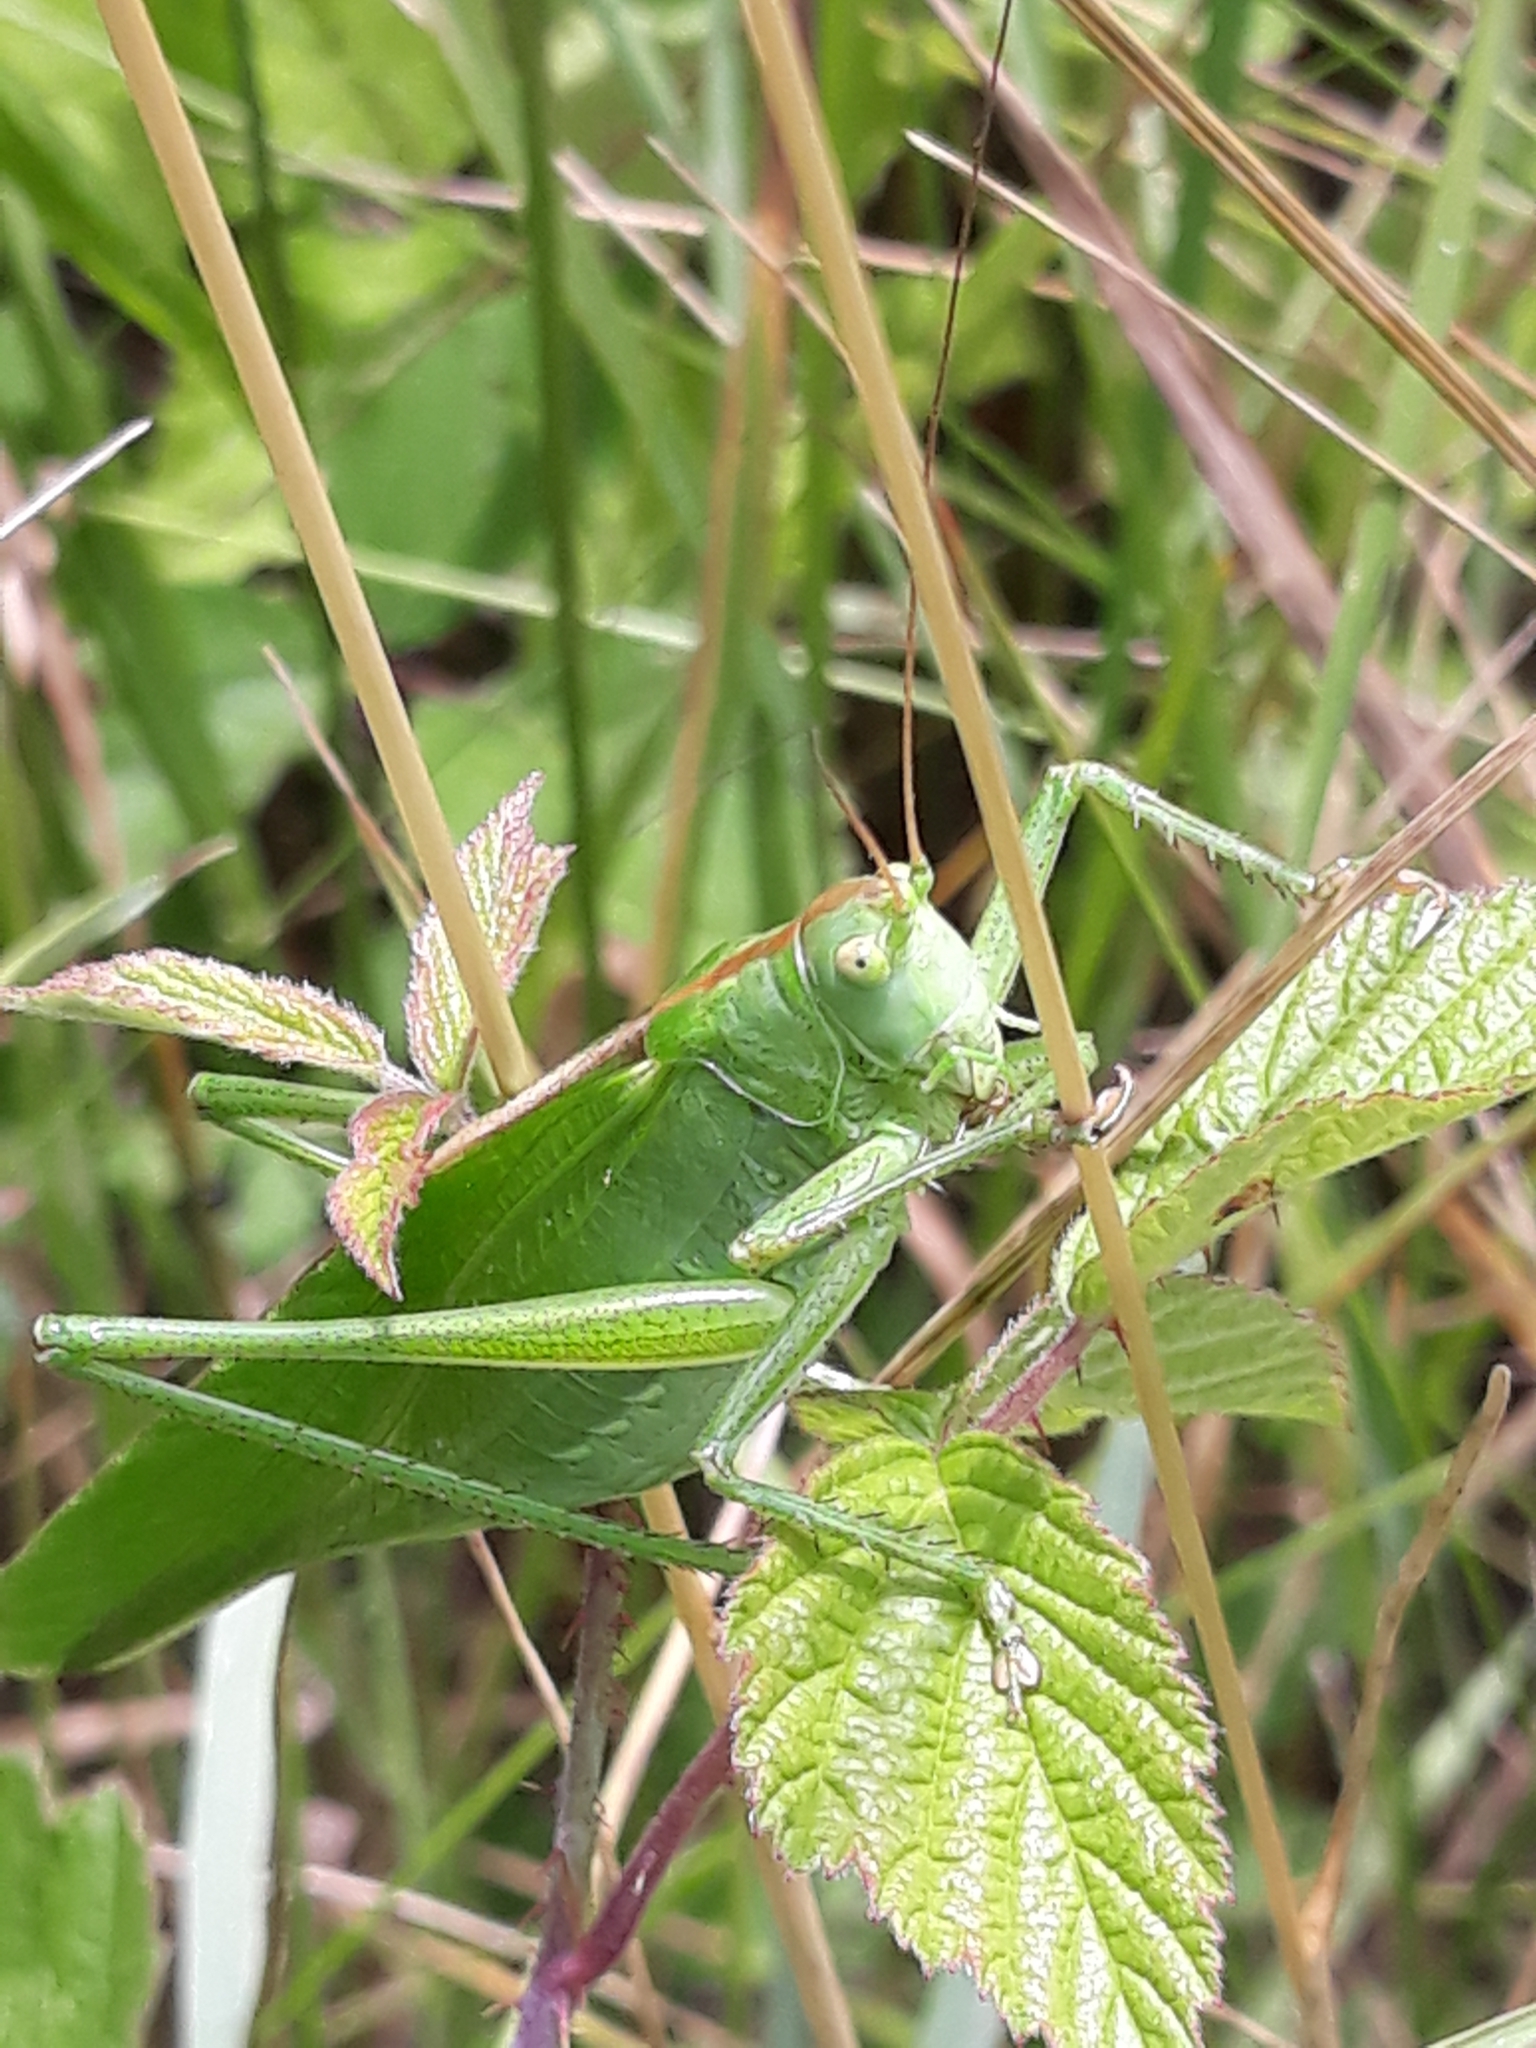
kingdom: Animalia
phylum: Arthropoda
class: Insecta
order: Orthoptera
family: Tettigoniidae
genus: Tettigonia
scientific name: Tettigonia viridissima
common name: Great green bush-cricket
